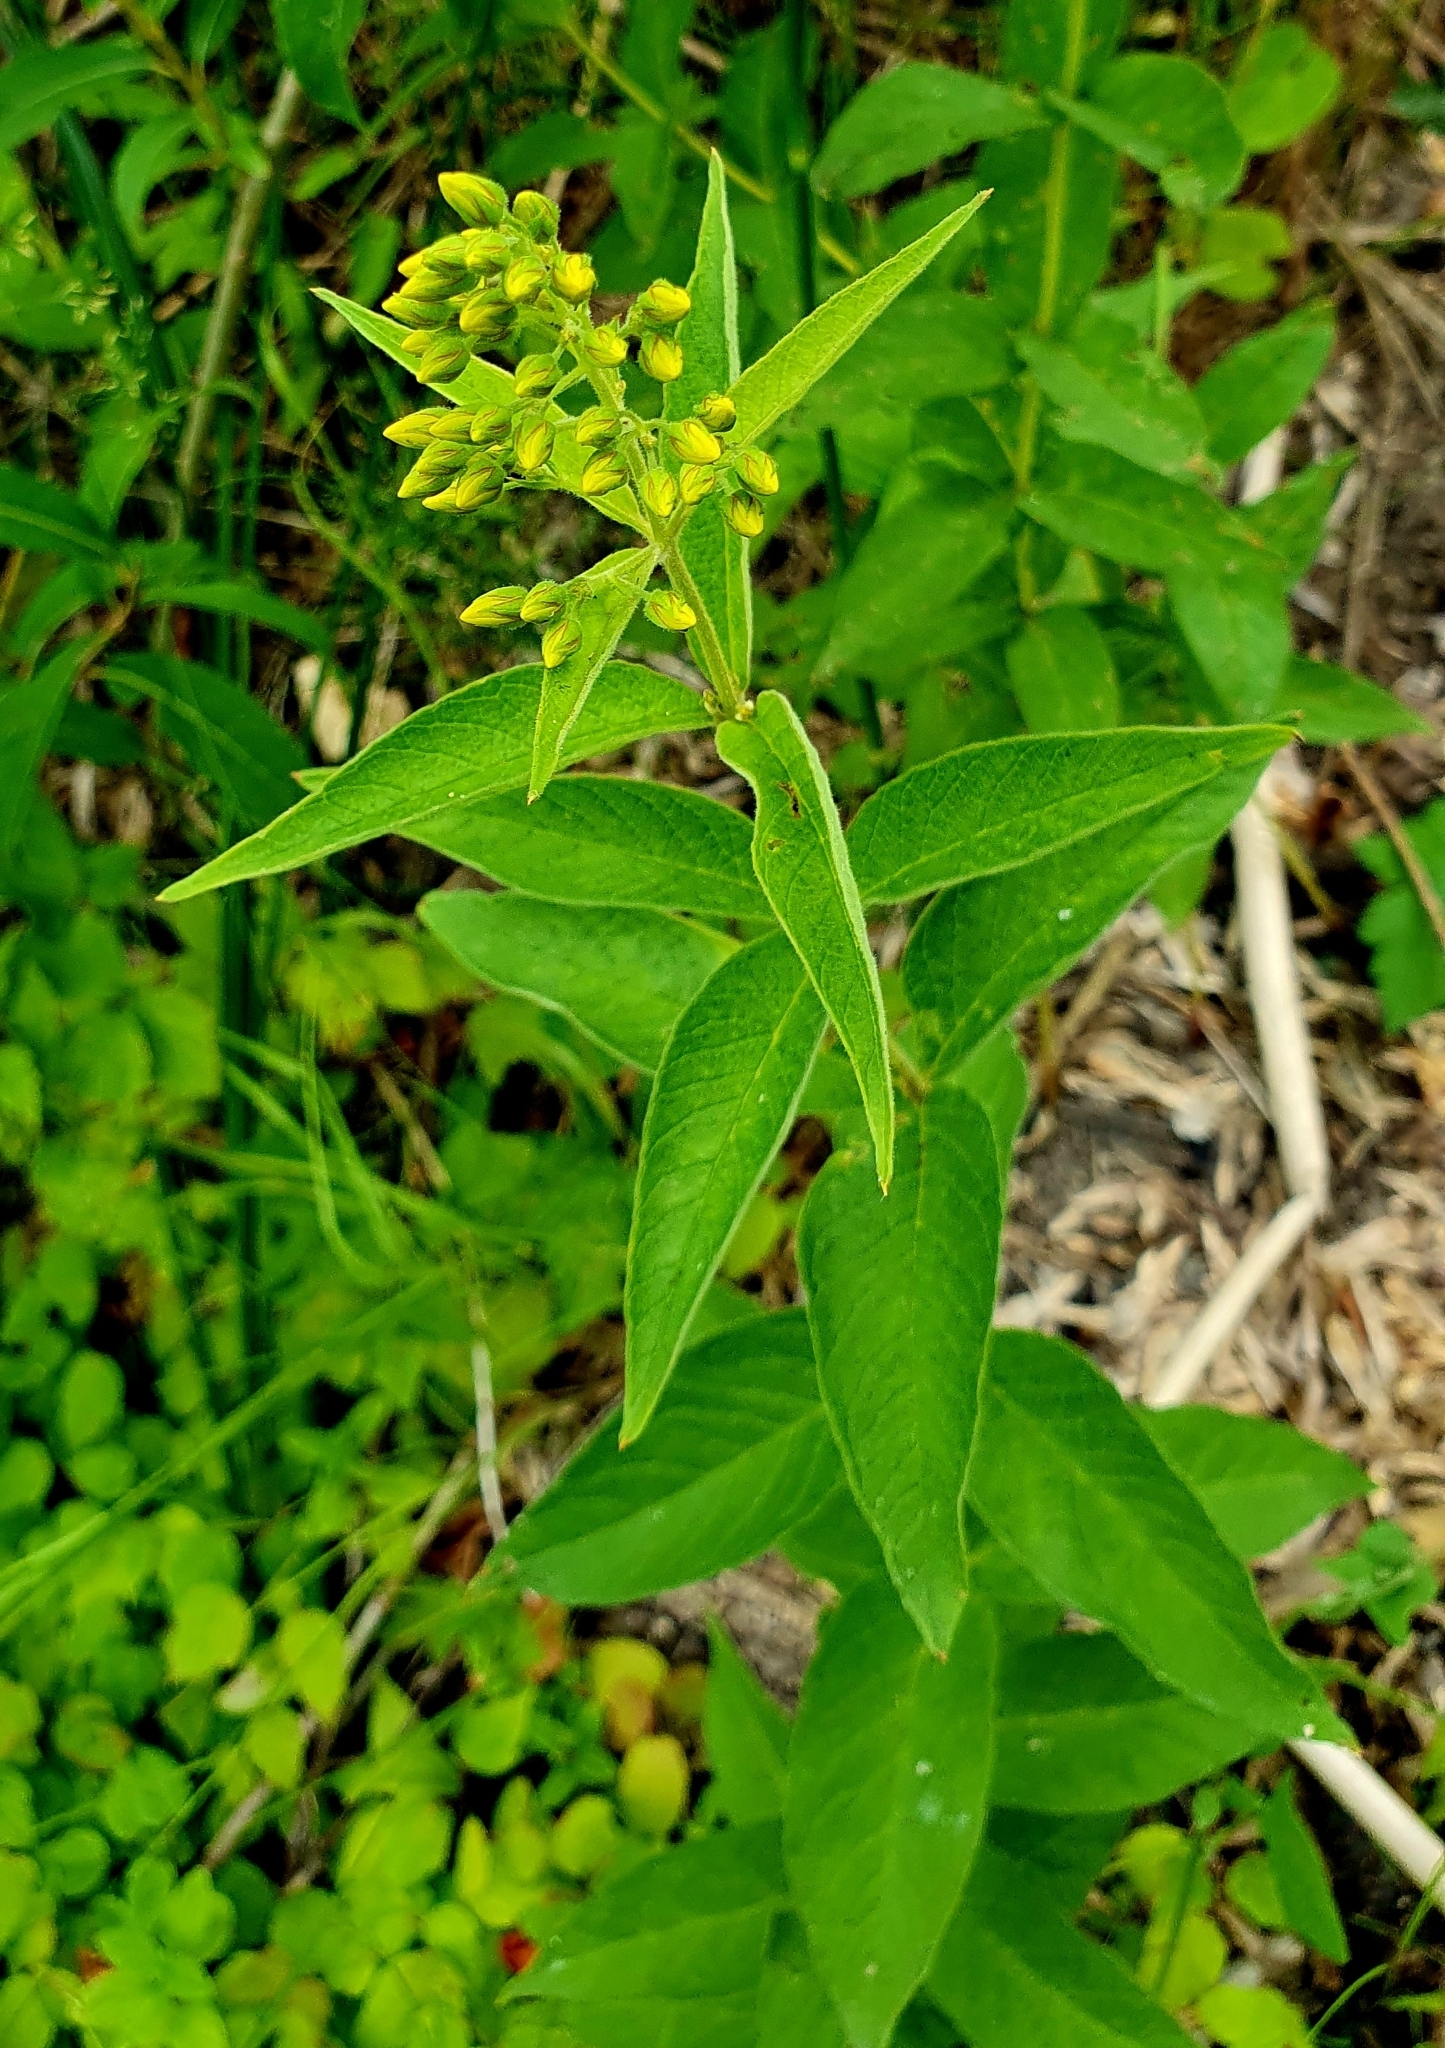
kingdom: Plantae
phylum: Tracheophyta
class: Magnoliopsida
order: Ericales
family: Primulaceae
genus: Lysimachia
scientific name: Lysimachia vulgaris
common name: Yellow loosestrife
